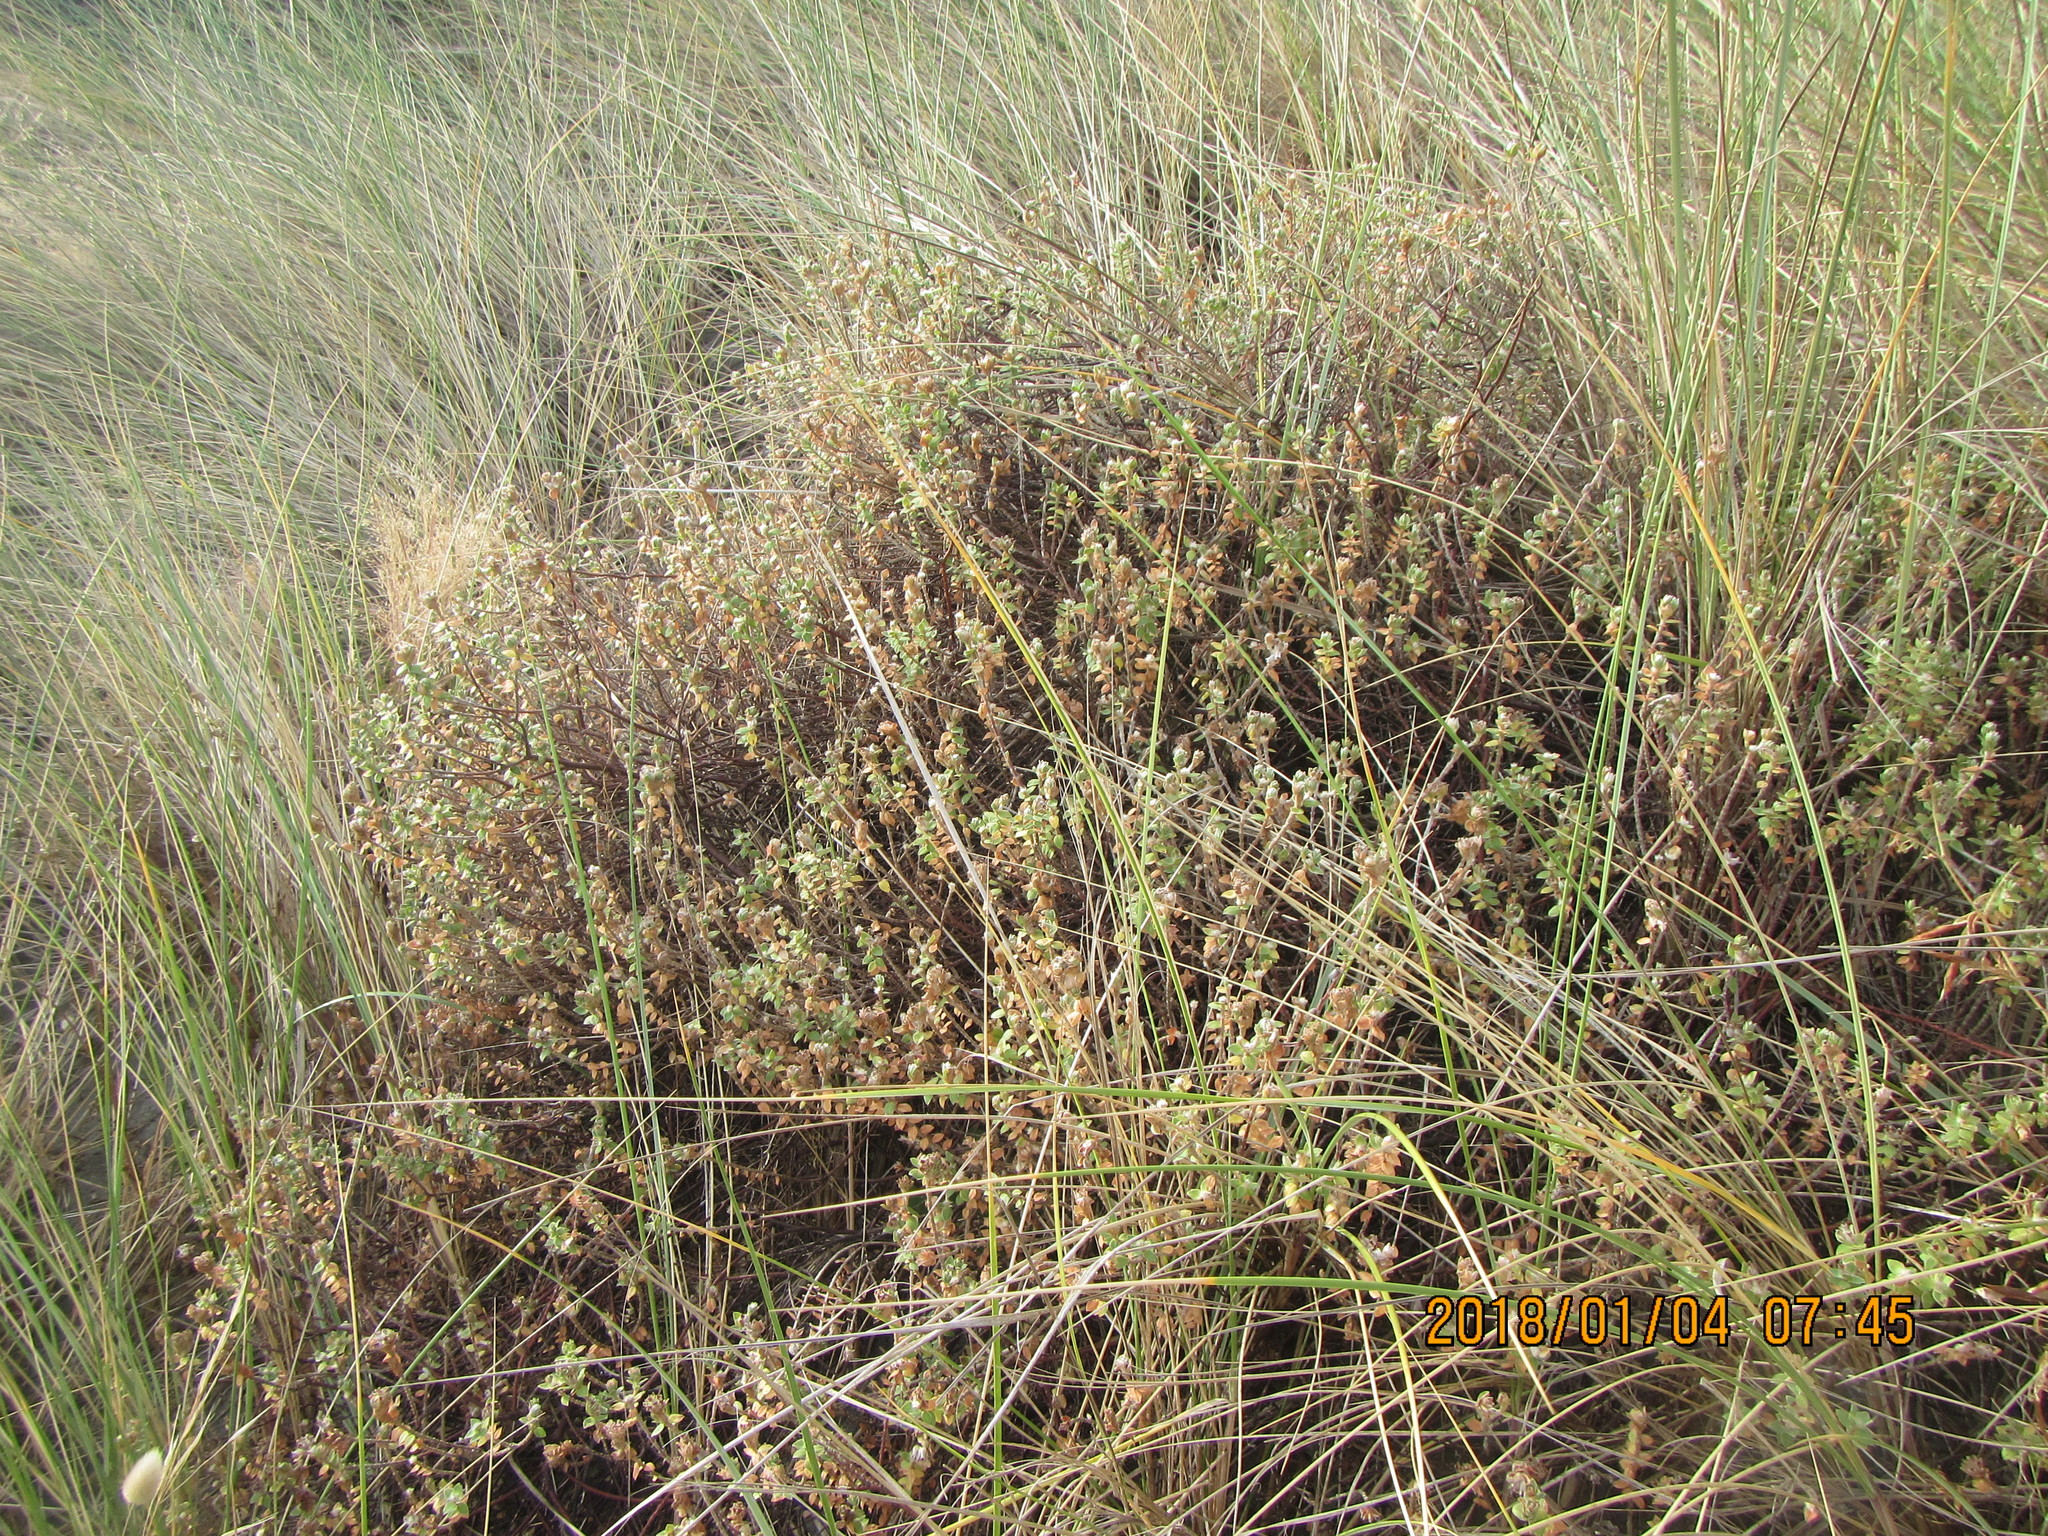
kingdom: Plantae
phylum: Tracheophyta
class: Magnoliopsida
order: Malvales
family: Thymelaeaceae
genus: Pimelea
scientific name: Pimelea villosa
